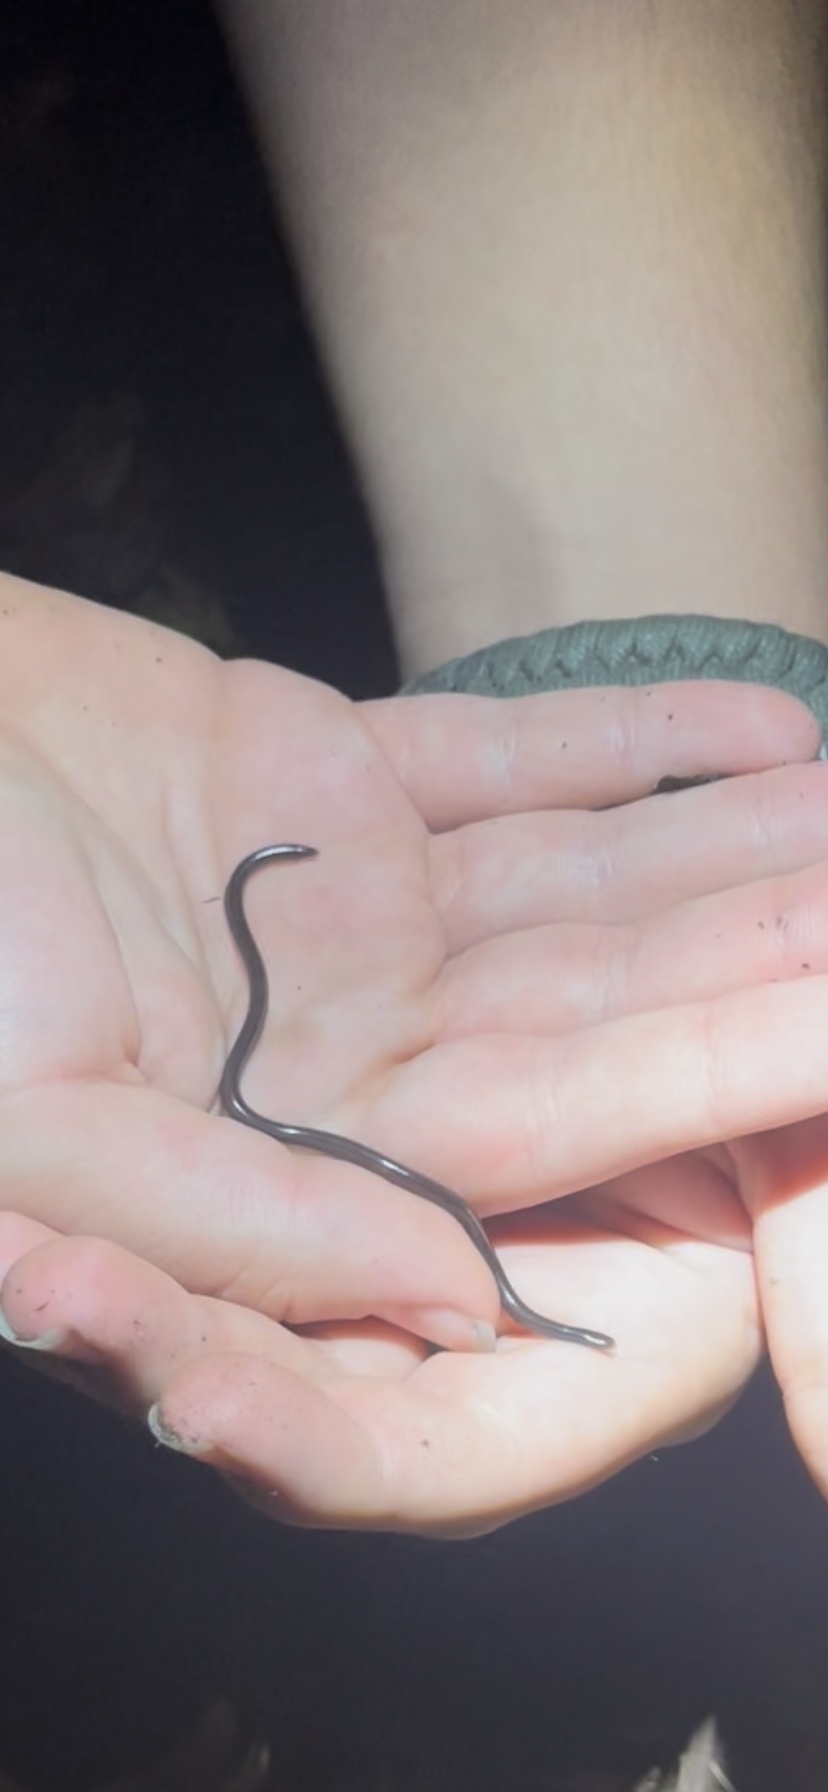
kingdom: Animalia
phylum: Chordata
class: Squamata
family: Typhlopidae
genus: Indotyphlops
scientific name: Indotyphlops braminus
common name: Brahminy blindsnake
